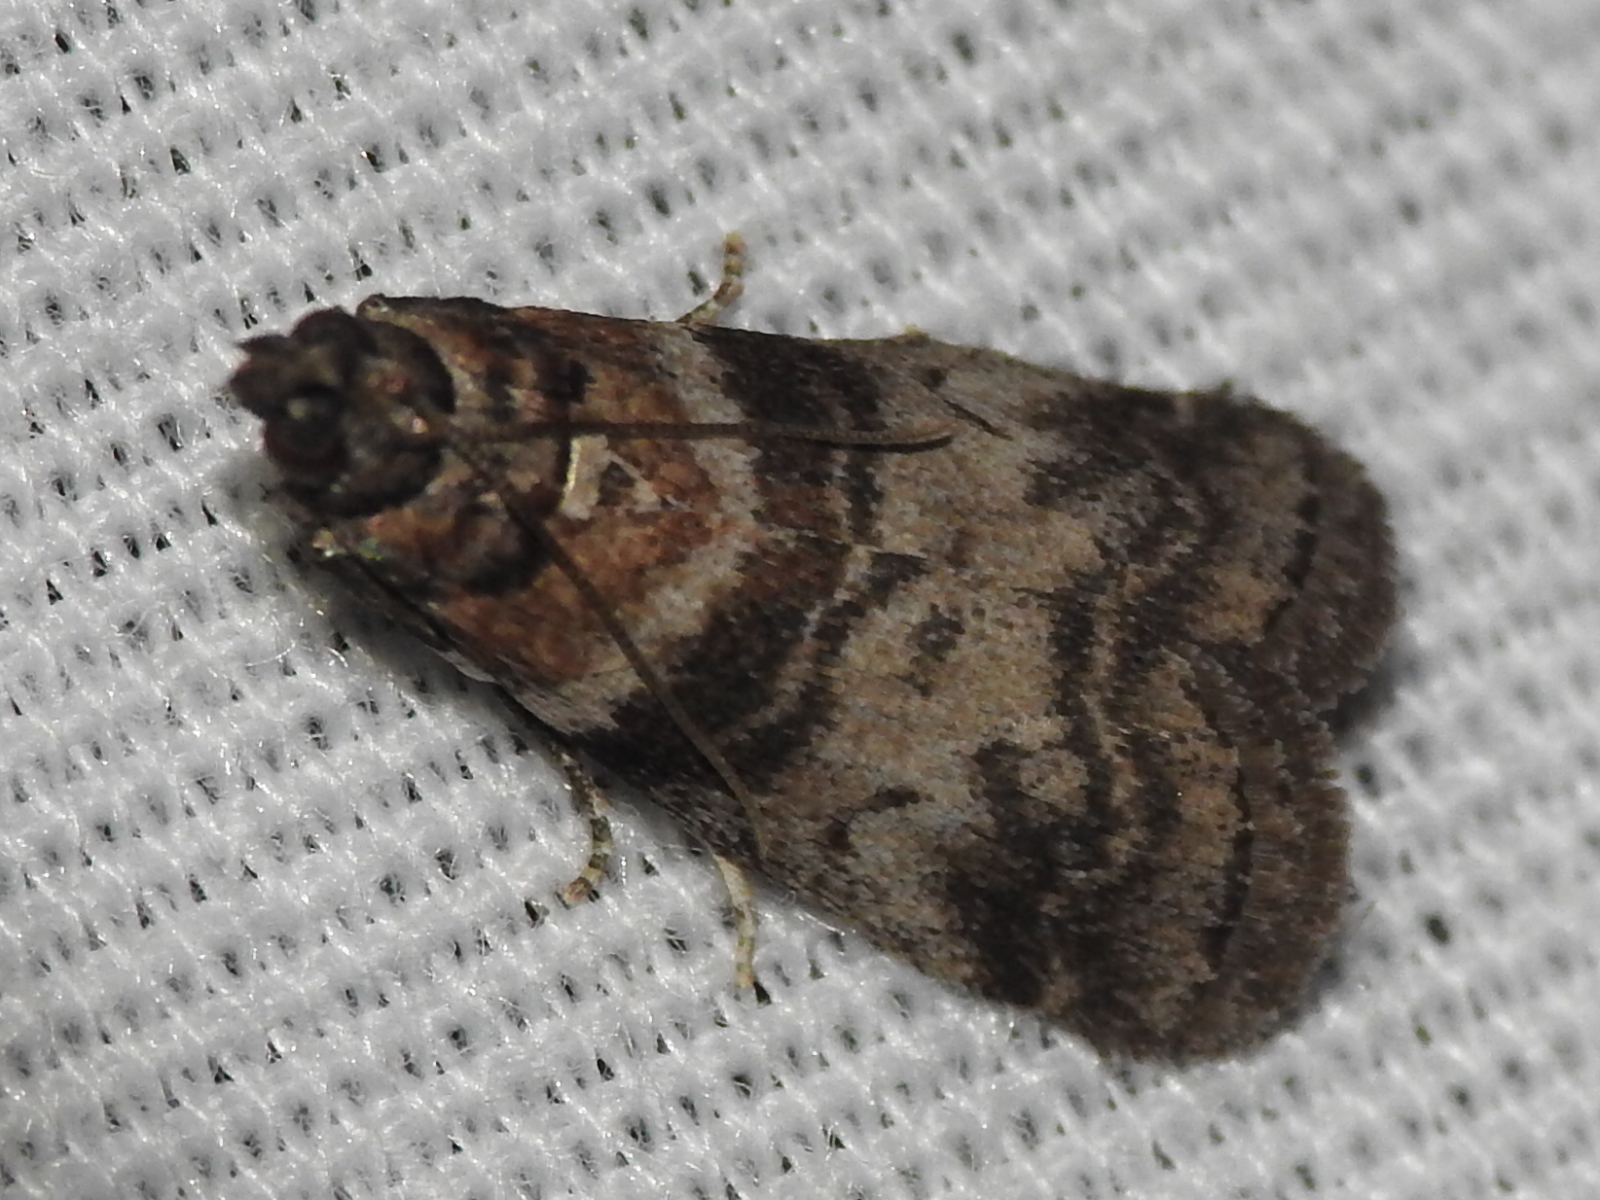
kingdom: Animalia
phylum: Arthropoda
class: Insecta
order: Lepidoptera
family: Pyralidae
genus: Sciota
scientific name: Sciota uvinella
